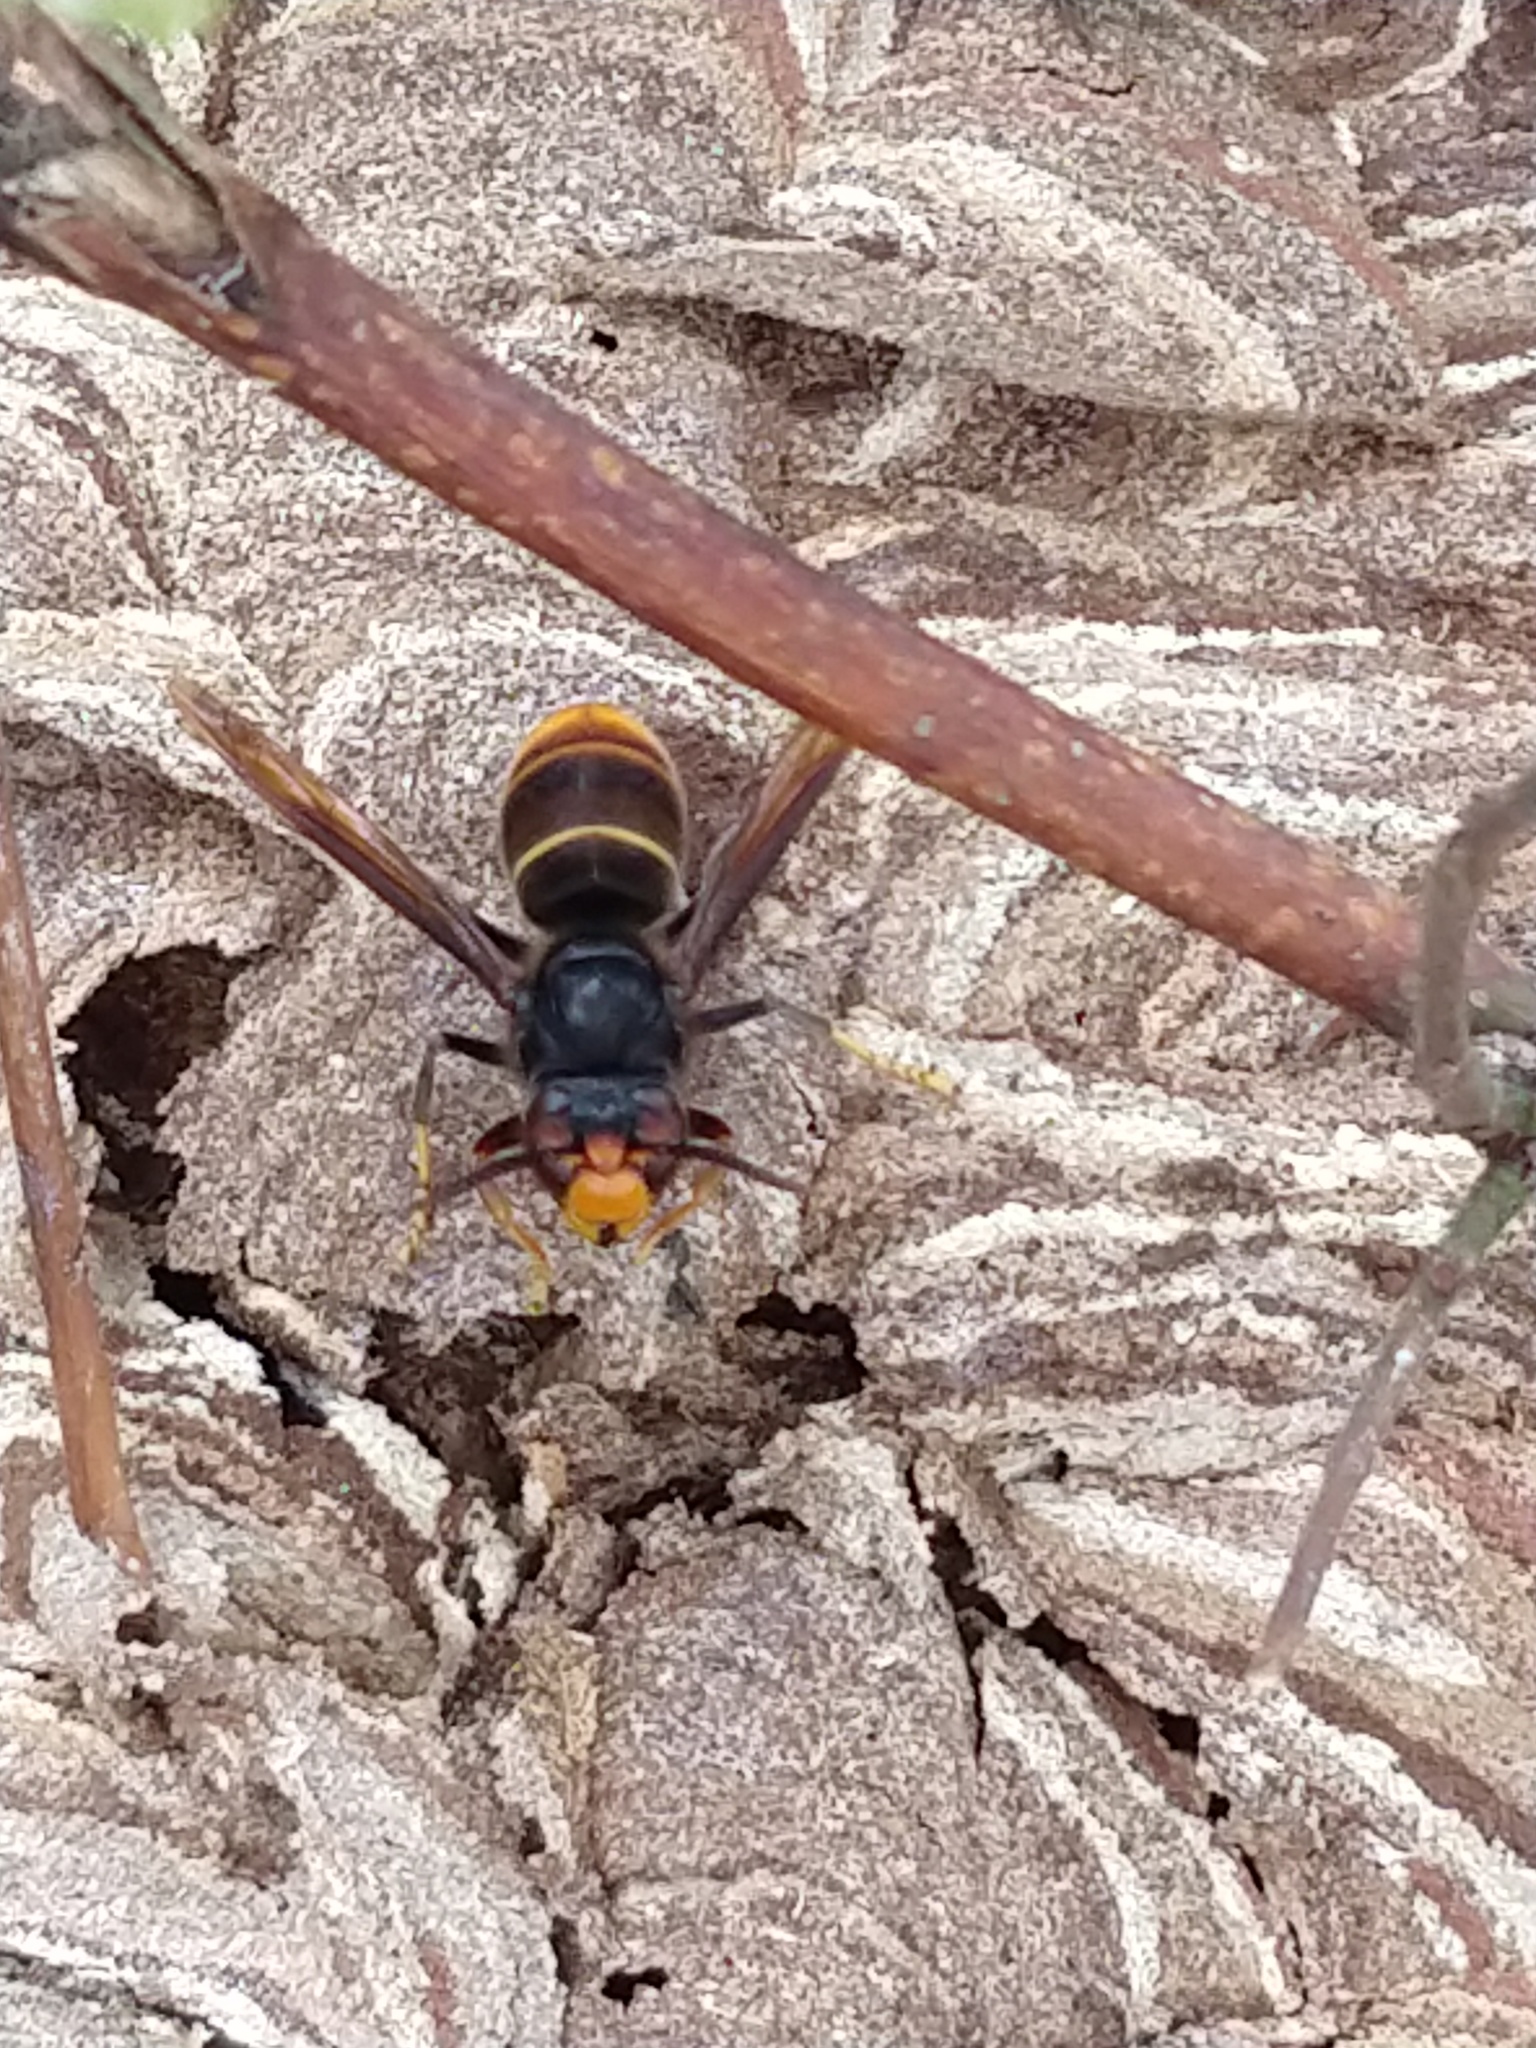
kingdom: Animalia
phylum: Arthropoda
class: Insecta
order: Hymenoptera
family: Vespidae
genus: Vespa
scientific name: Vespa velutina
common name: Asian hornet
